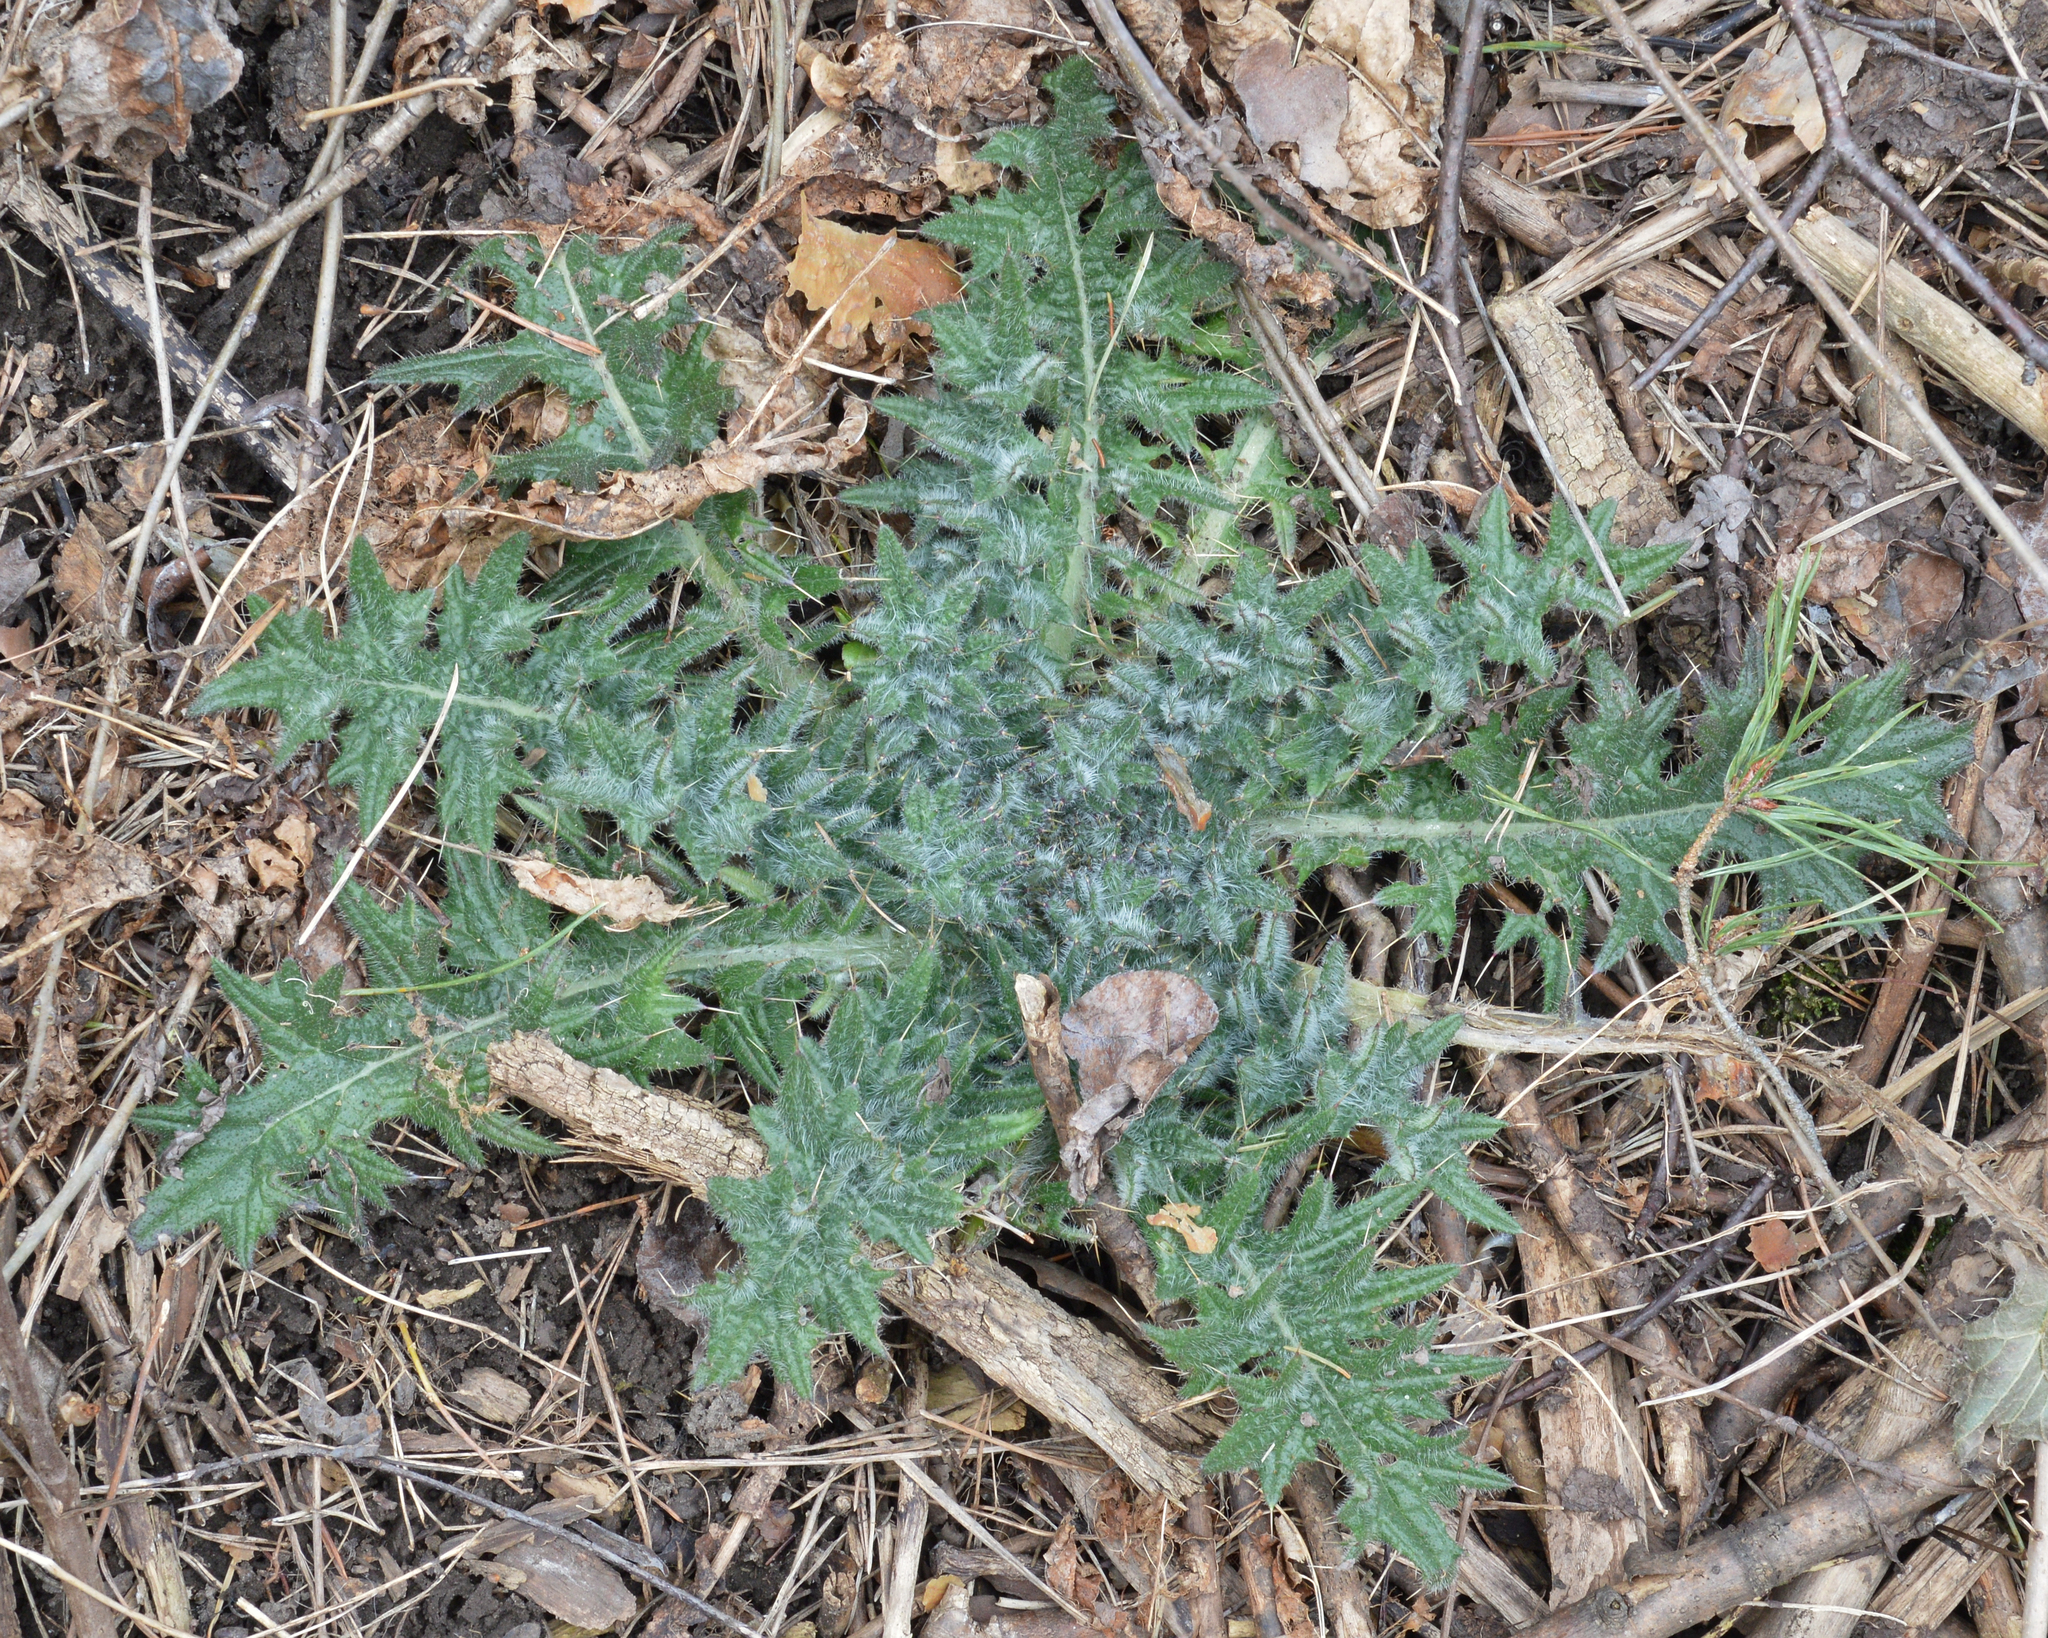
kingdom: Plantae
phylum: Tracheophyta
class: Magnoliopsida
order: Asterales
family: Asteraceae
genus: Cirsium
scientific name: Cirsium vulgare
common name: Bull thistle
